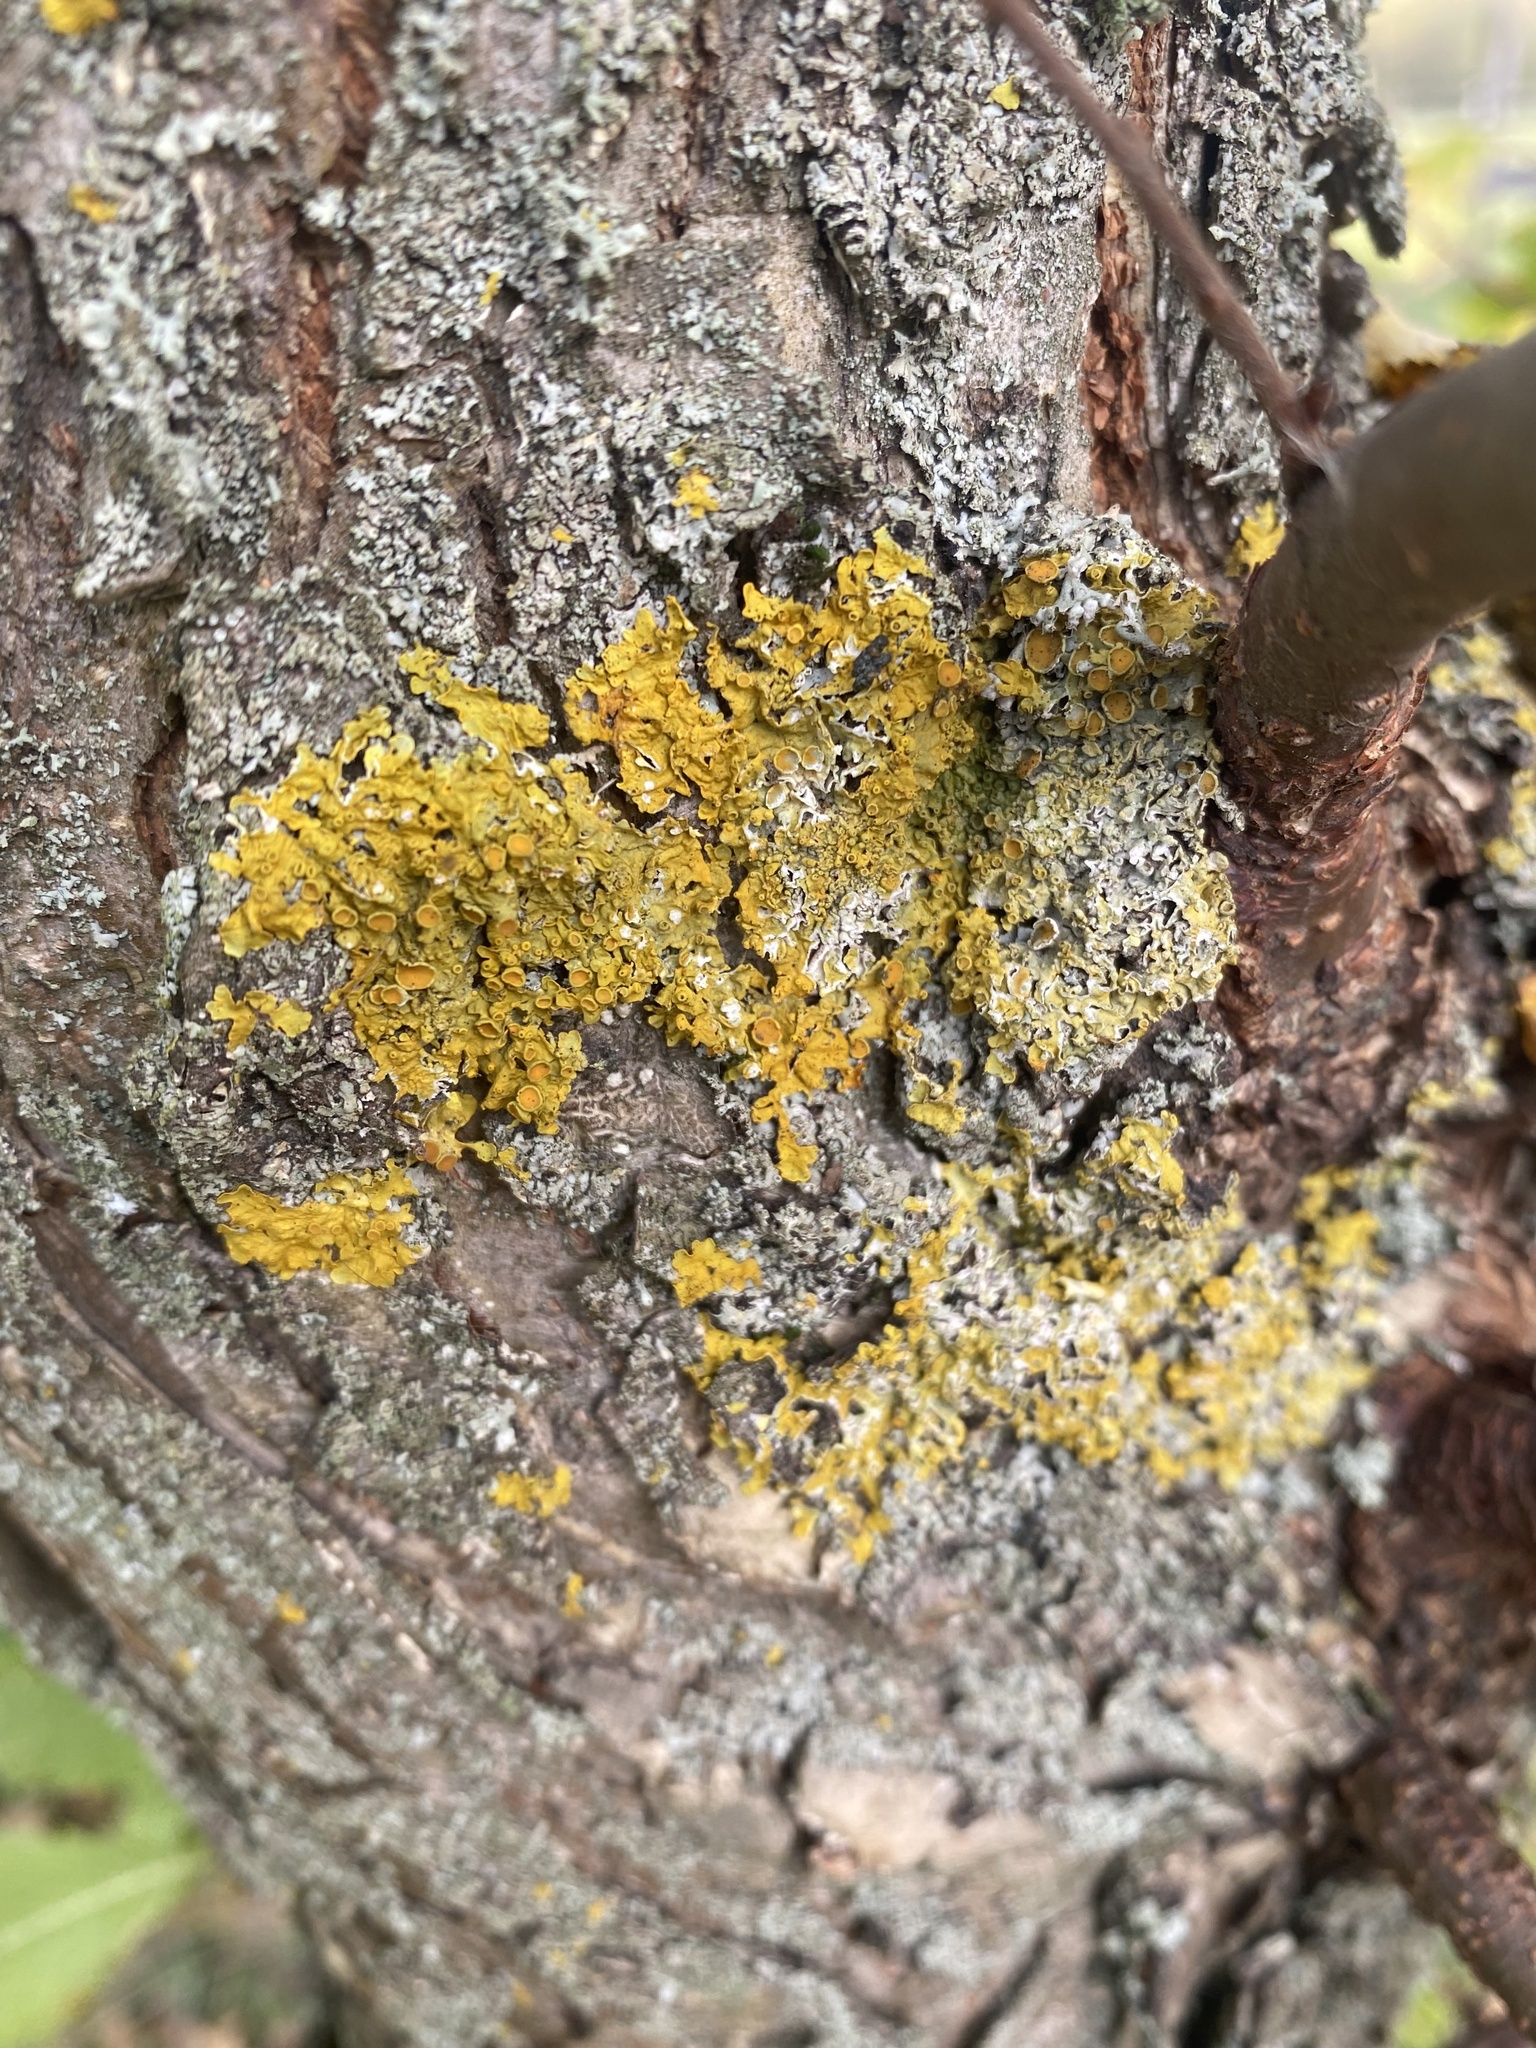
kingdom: Fungi
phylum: Ascomycota
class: Lecanoromycetes
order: Teloschistales
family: Teloschistaceae
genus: Xanthoria
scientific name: Xanthoria parietina
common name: Common orange lichen
